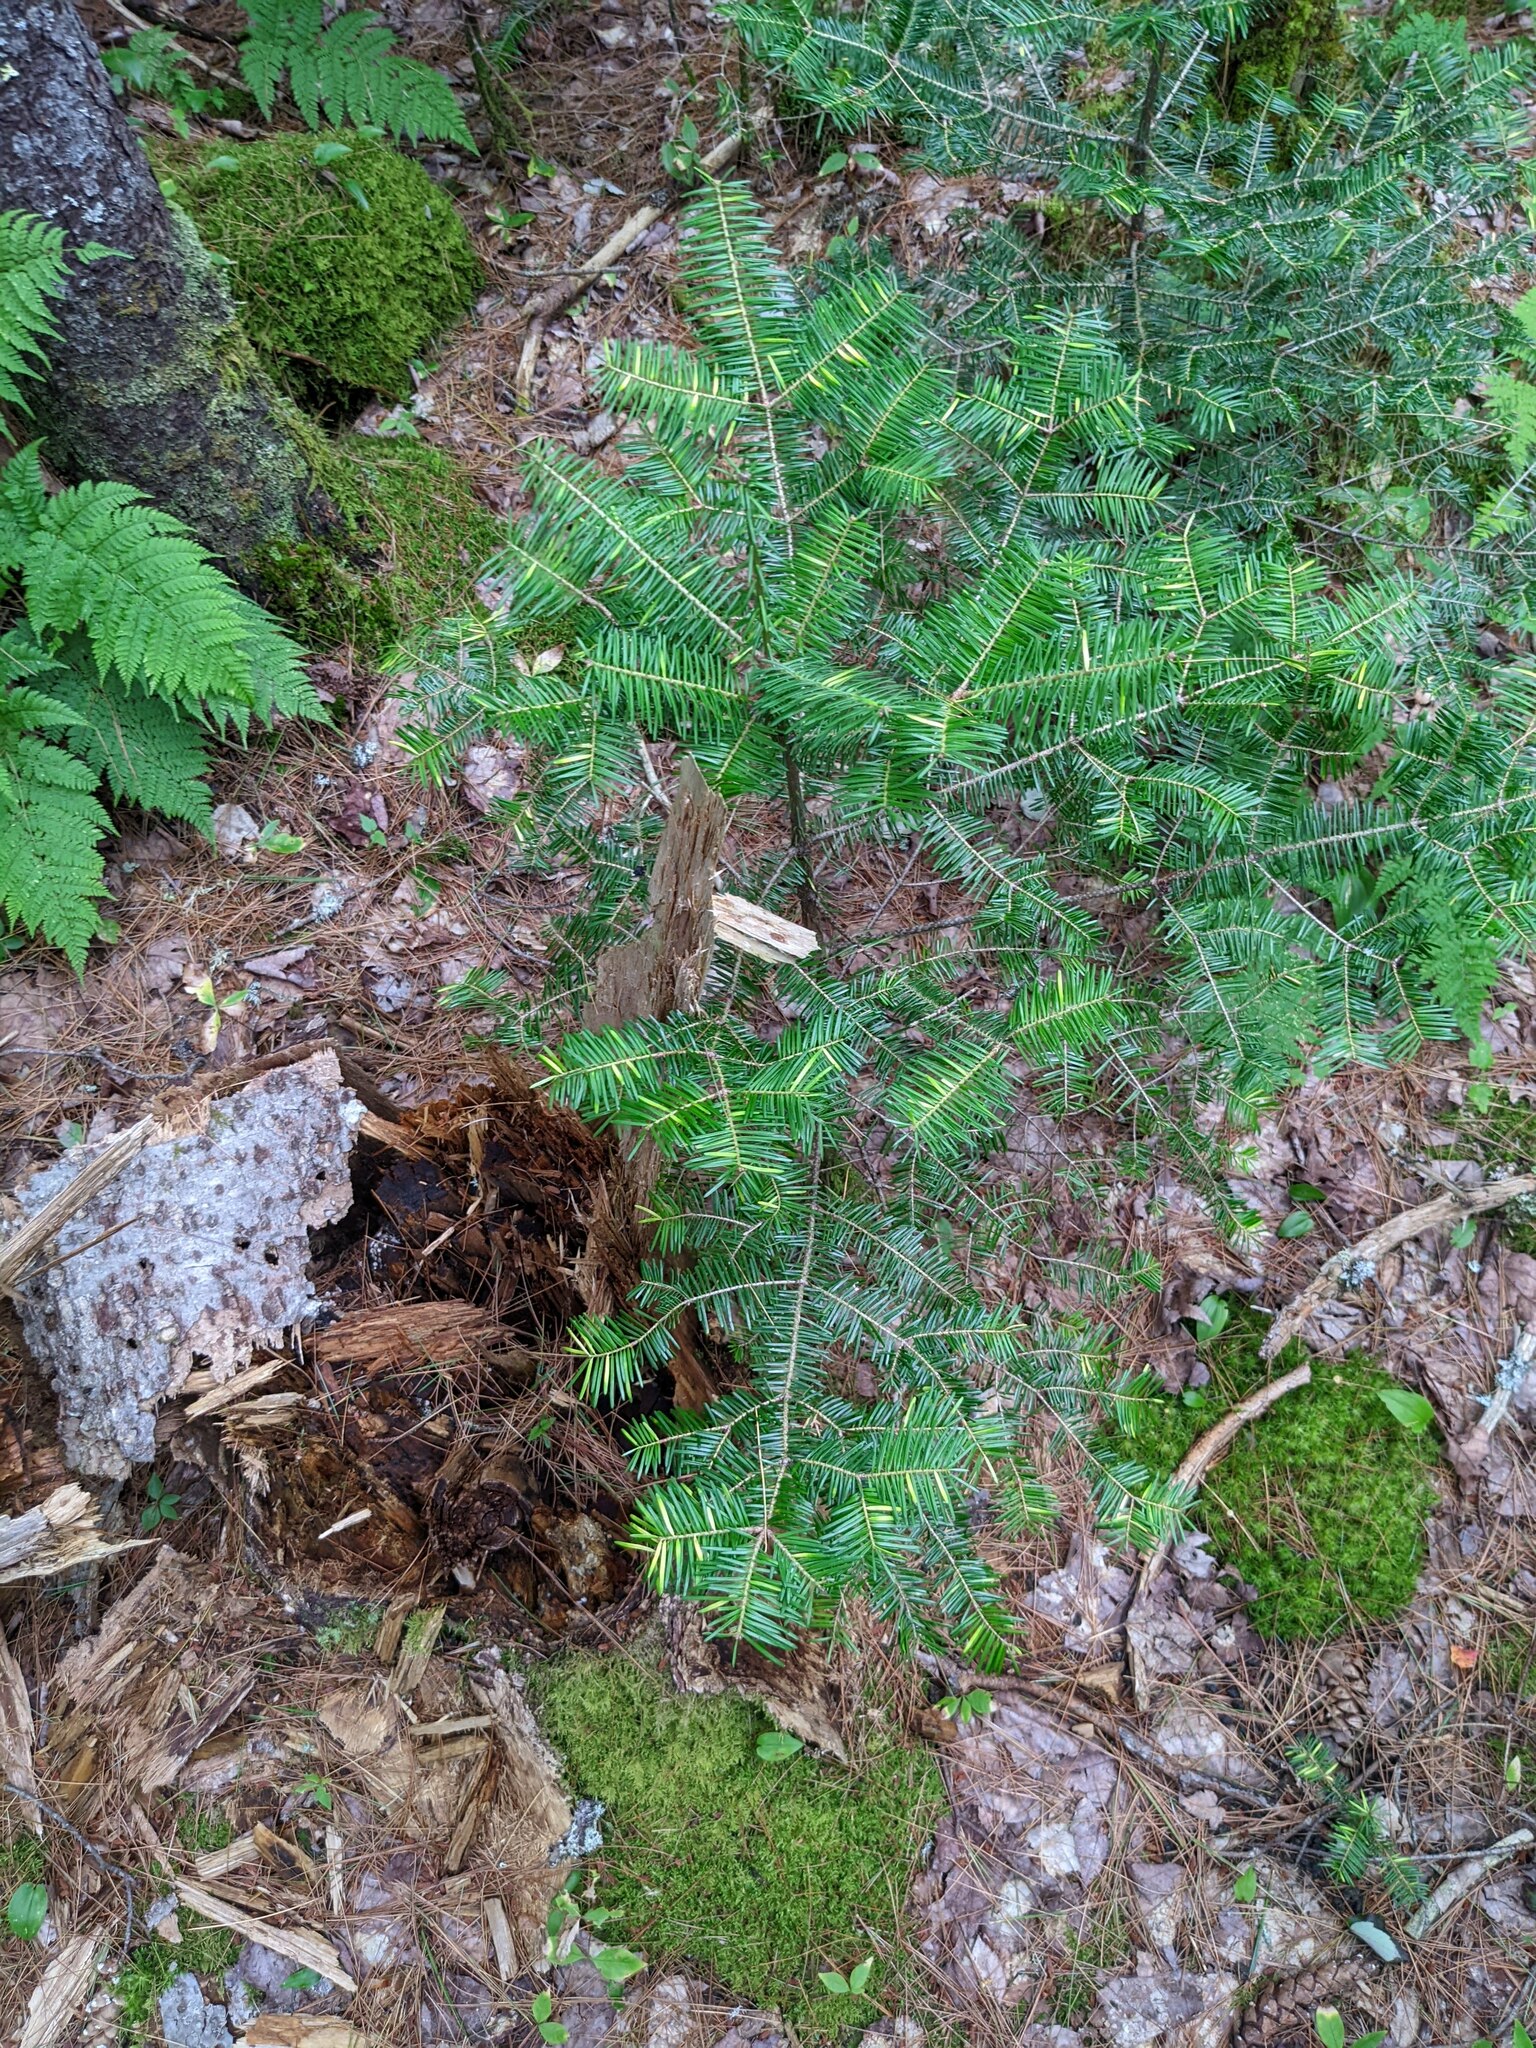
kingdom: Plantae
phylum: Tracheophyta
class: Pinopsida
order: Pinales
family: Pinaceae
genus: Abies
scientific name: Abies balsamea
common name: Balsam fir
